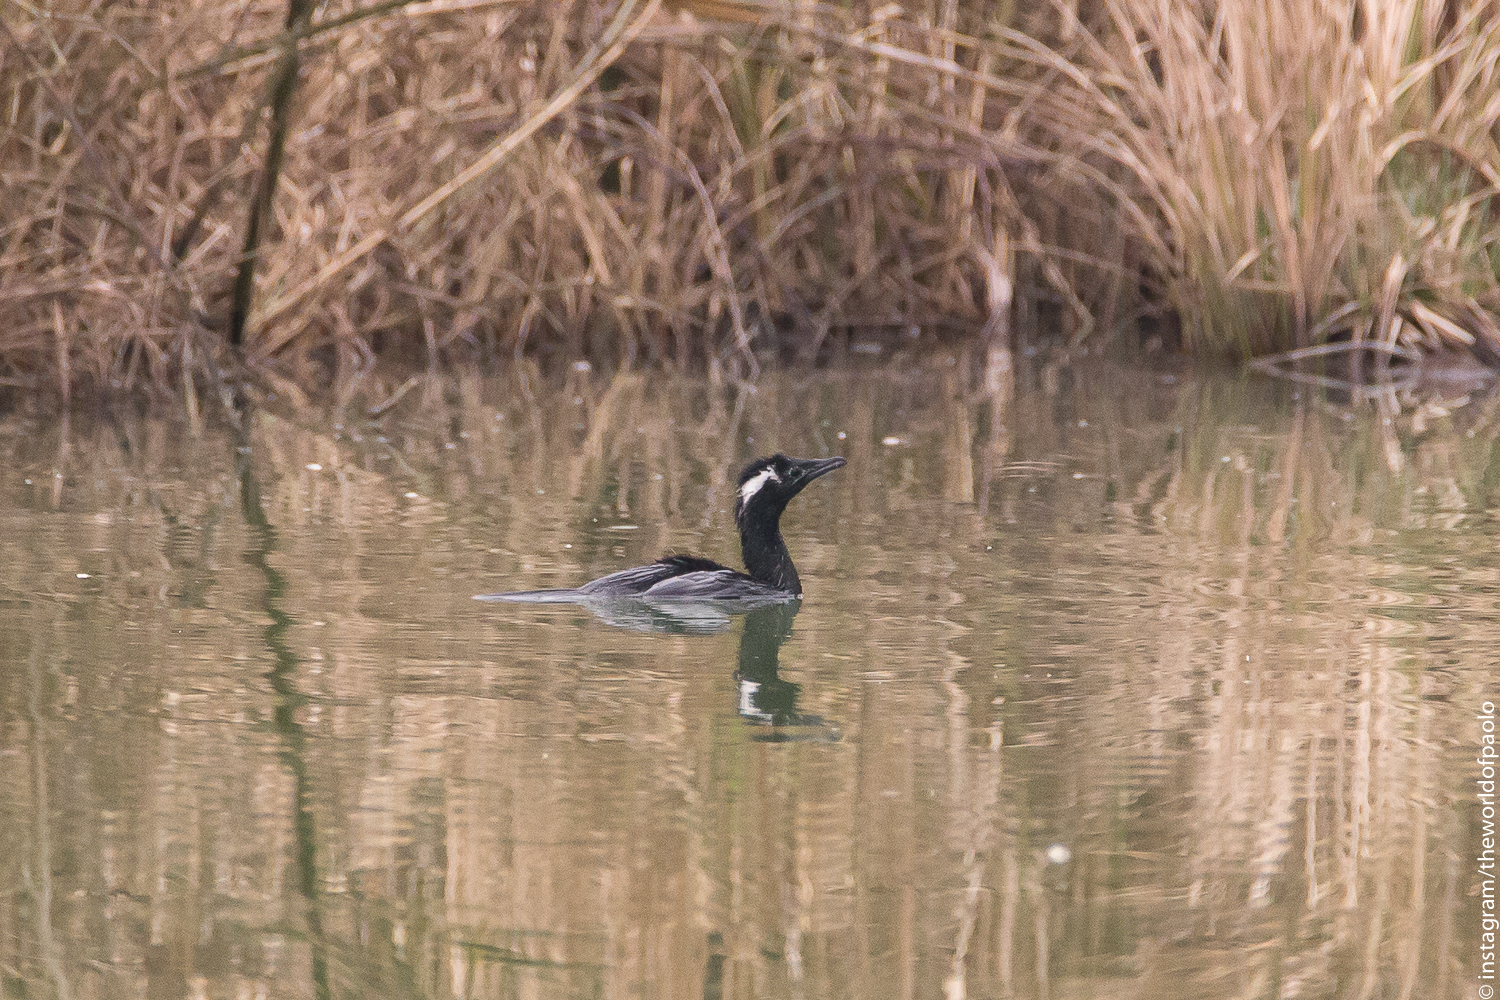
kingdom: Animalia
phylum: Chordata
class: Aves
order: Suliformes
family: Phalacrocoracidae
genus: Microcarbo
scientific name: Microcarbo pygmaeus
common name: Pygmy cormorant
